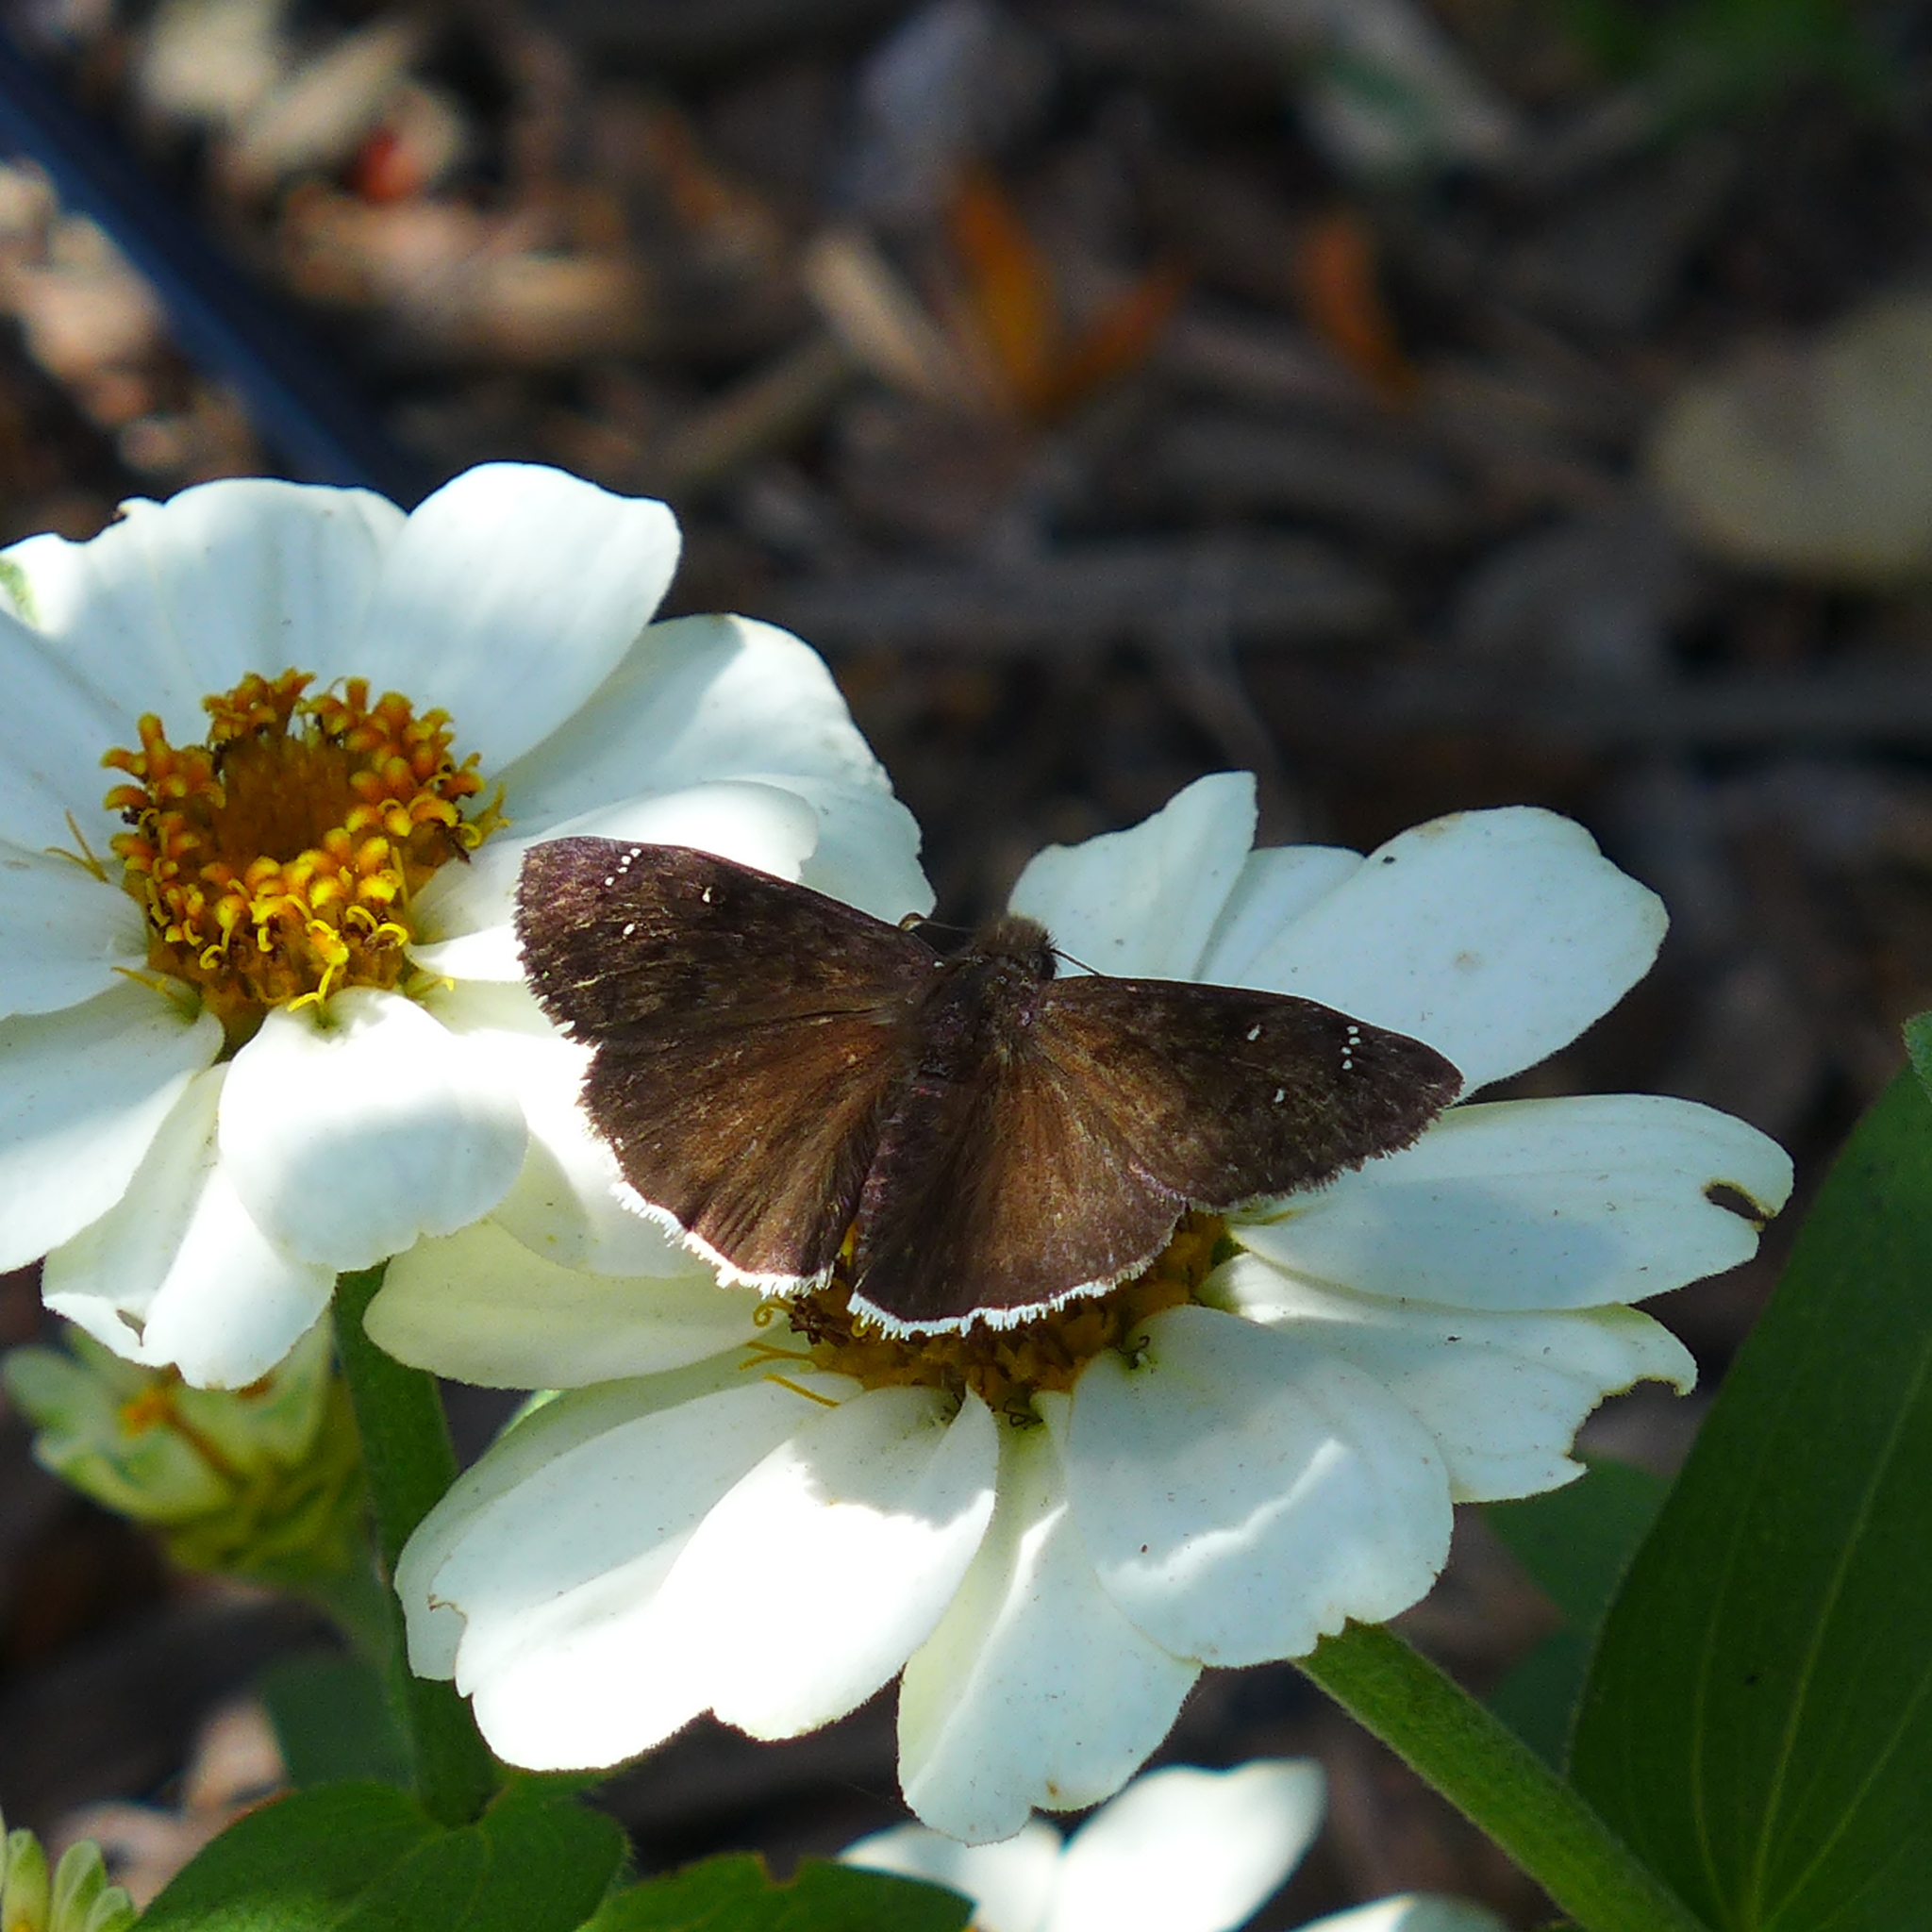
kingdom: Animalia
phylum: Arthropoda
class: Insecta
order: Lepidoptera
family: Hesperiidae
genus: Erynnis
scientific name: Erynnis tristis
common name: Mournful duskywing
